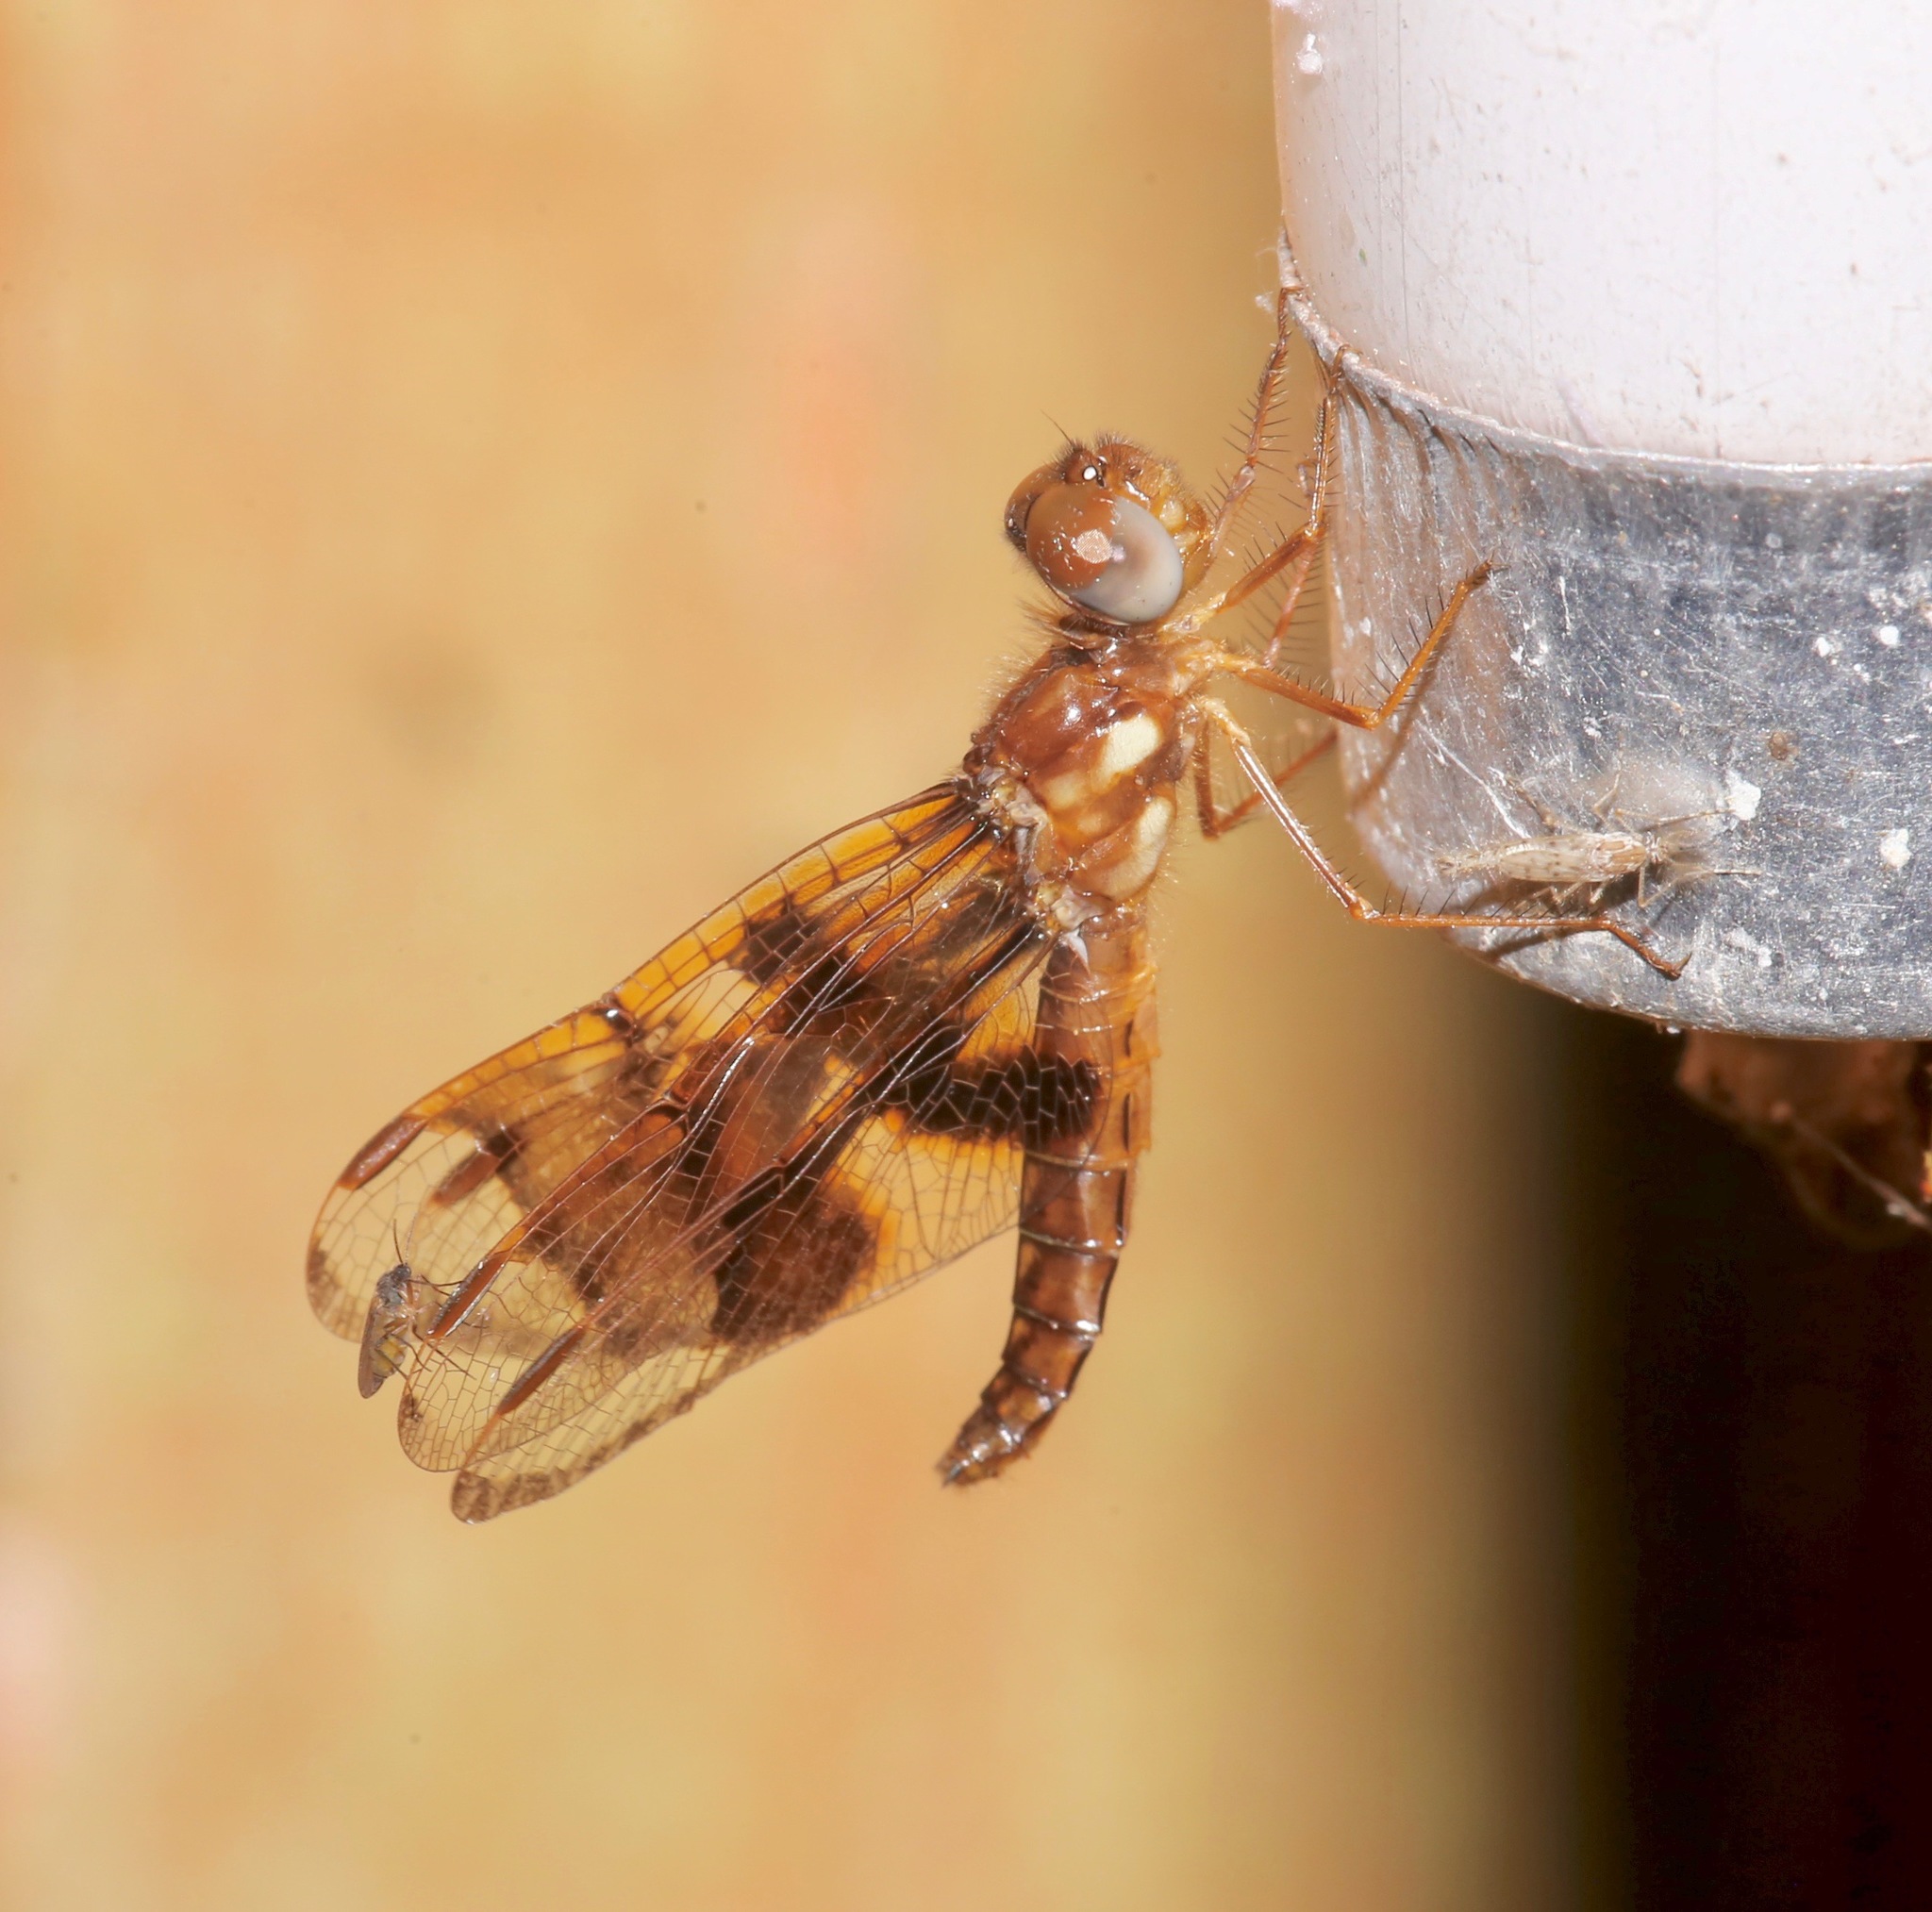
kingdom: Animalia
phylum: Arthropoda
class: Insecta
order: Odonata
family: Libellulidae
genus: Perithemis
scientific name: Perithemis tenera
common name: Eastern amberwing
